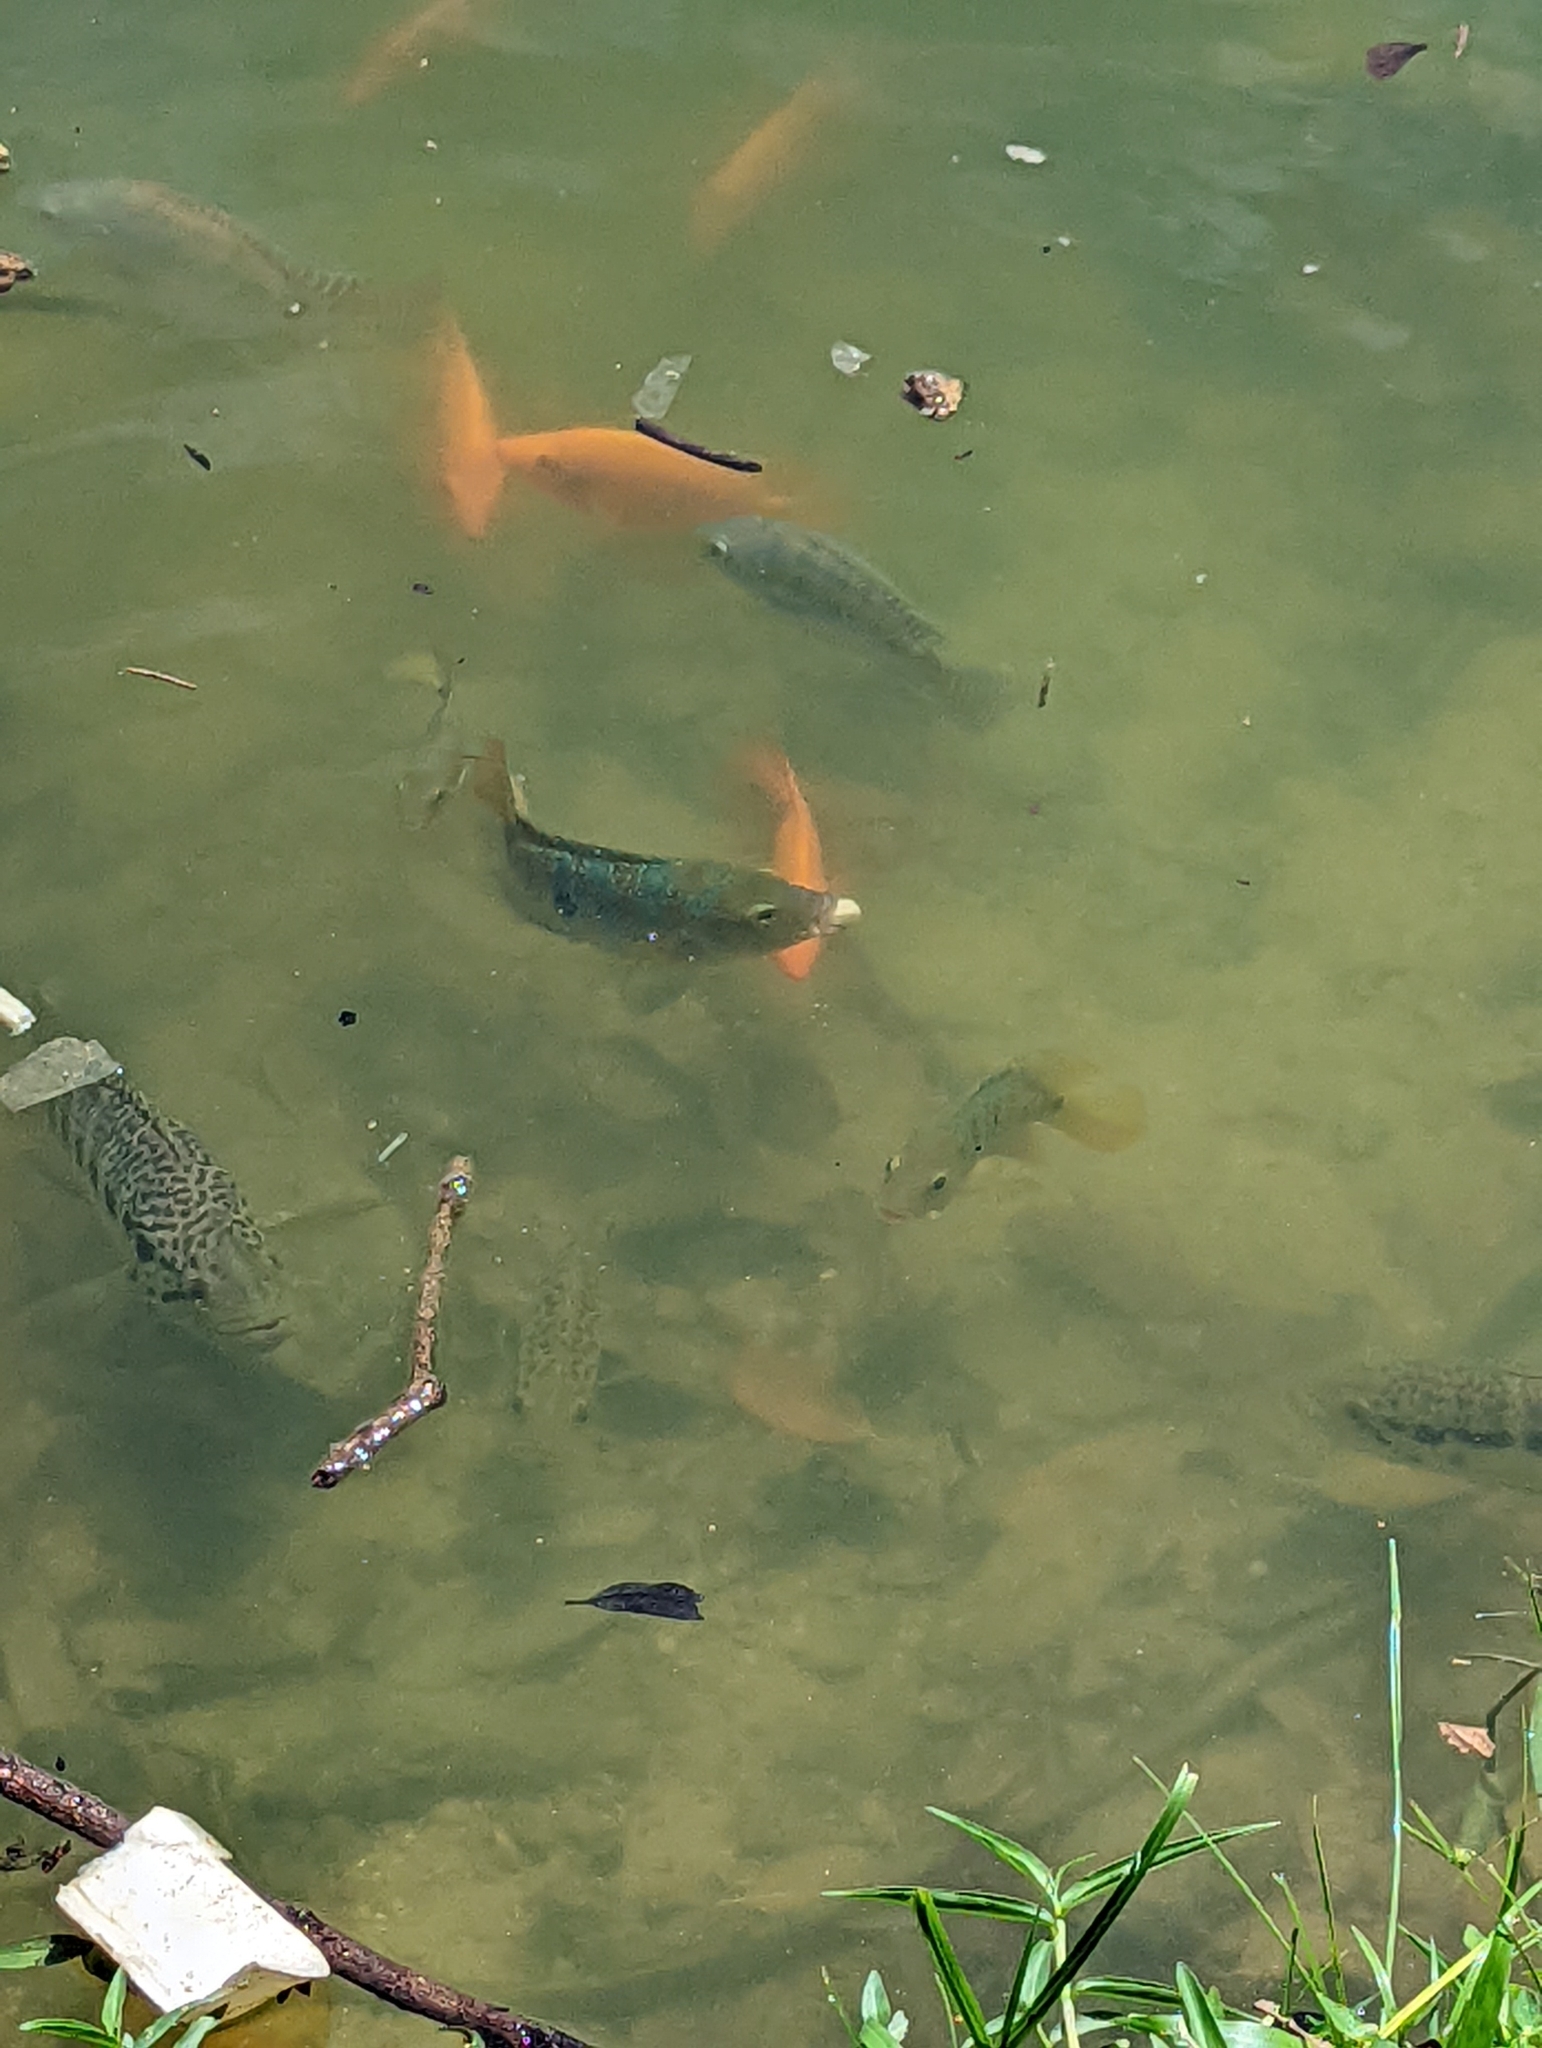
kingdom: Animalia
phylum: Chordata
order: Perciformes
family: Cichlidae
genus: Mayaheros
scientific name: Mayaheros urophthalmus
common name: Mayan cichlid
